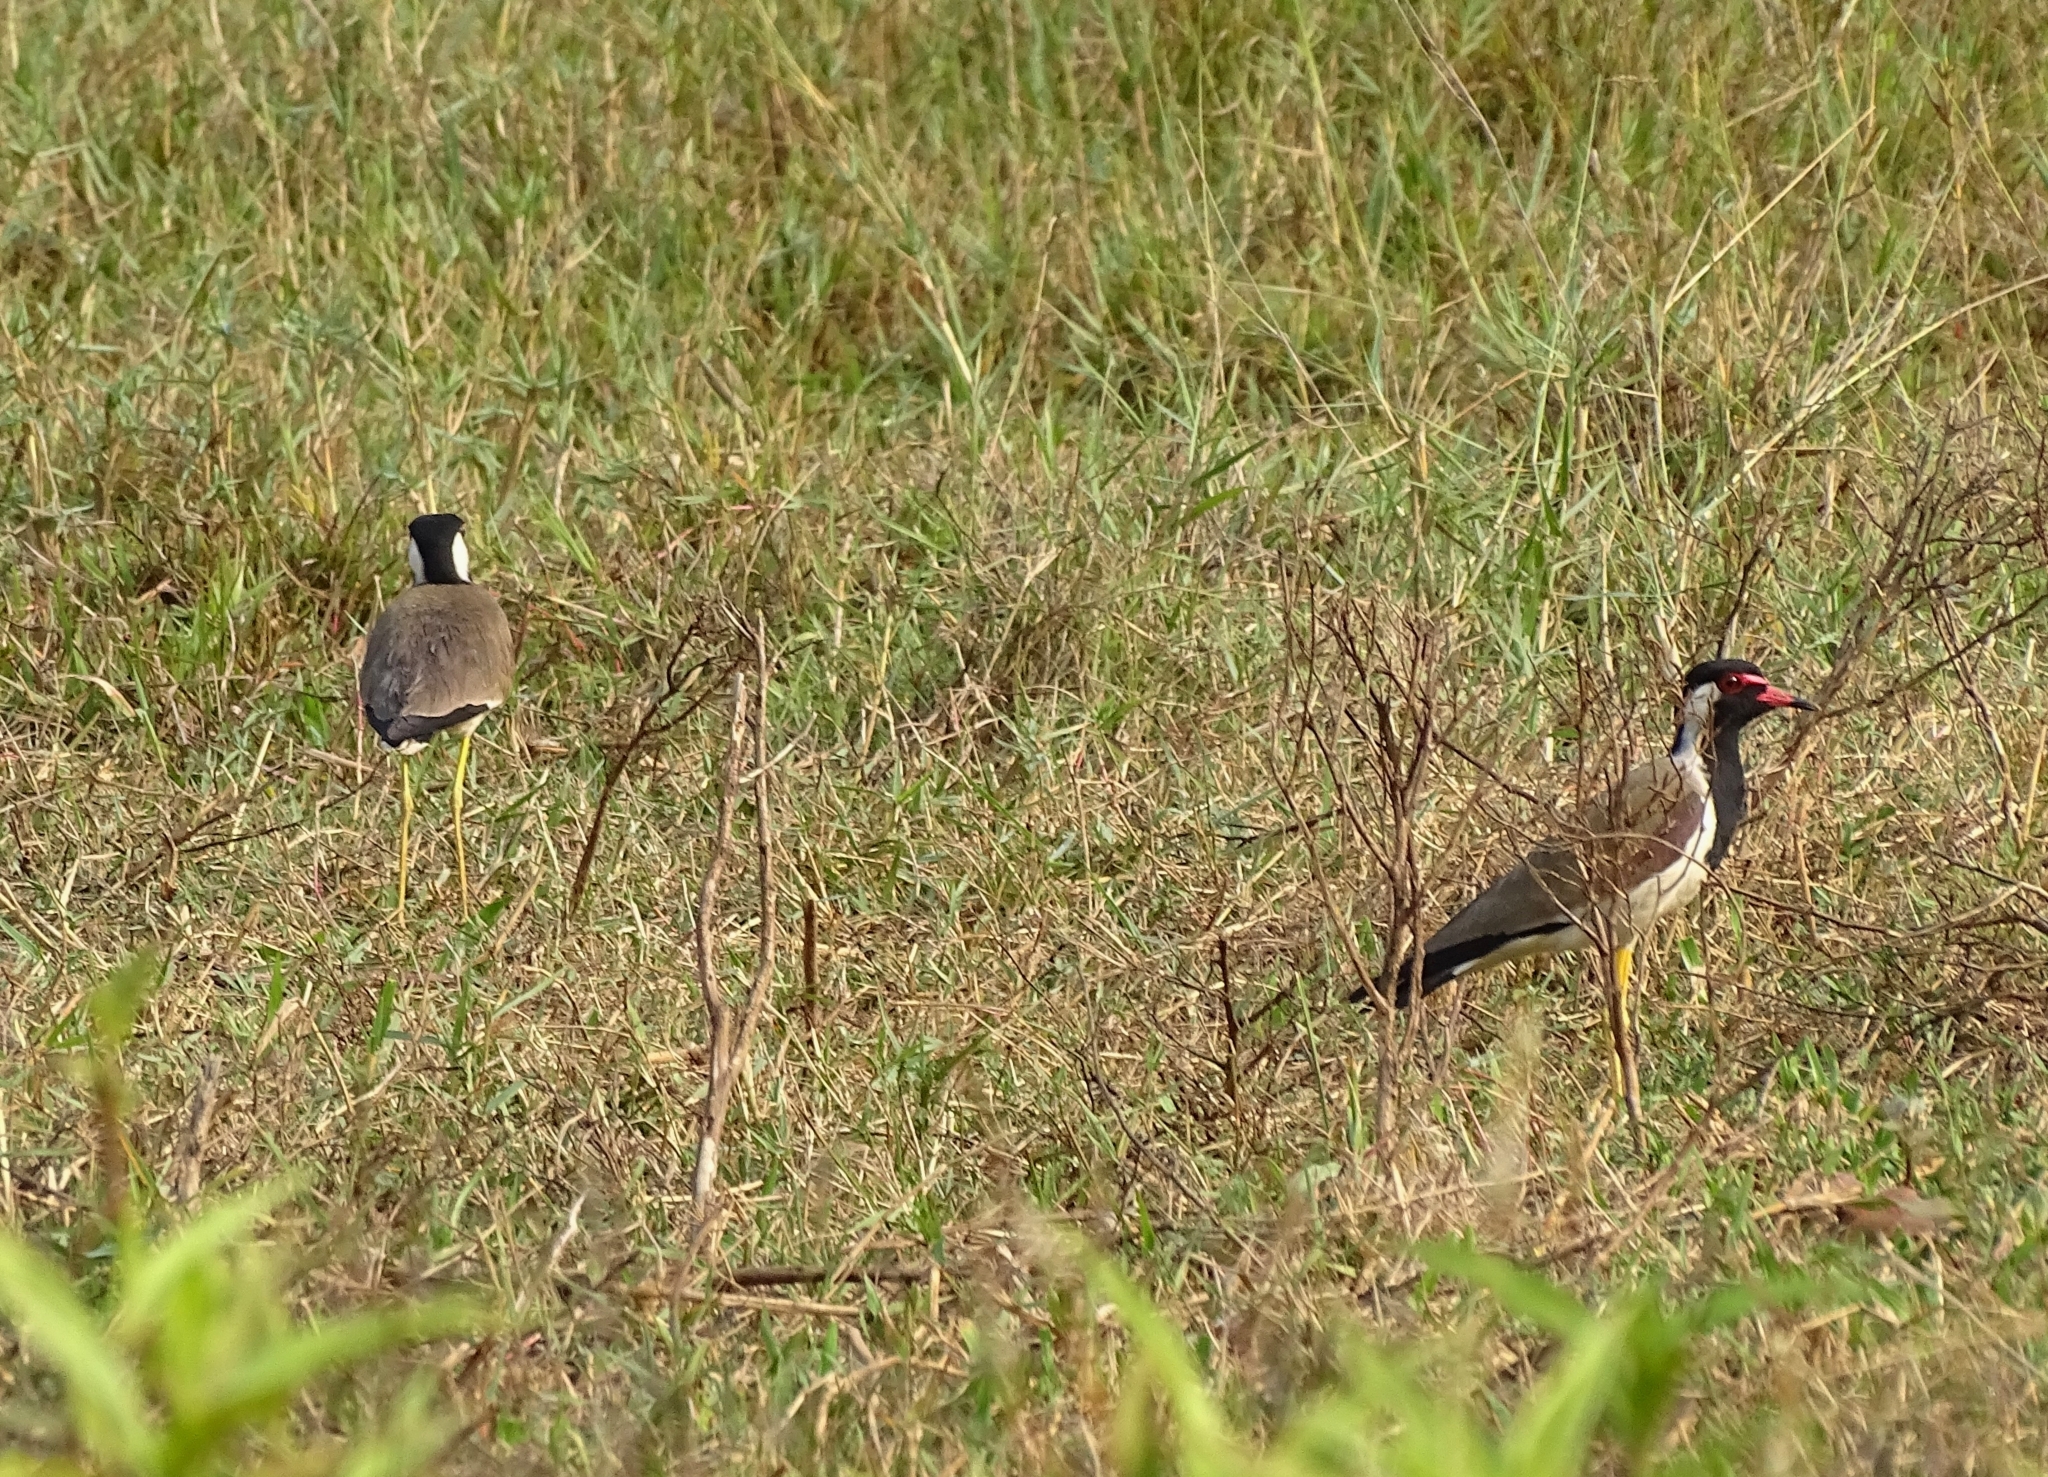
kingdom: Animalia
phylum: Chordata
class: Aves
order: Charadriiformes
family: Charadriidae
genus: Vanellus
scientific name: Vanellus indicus
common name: Red-wattled lapwing
